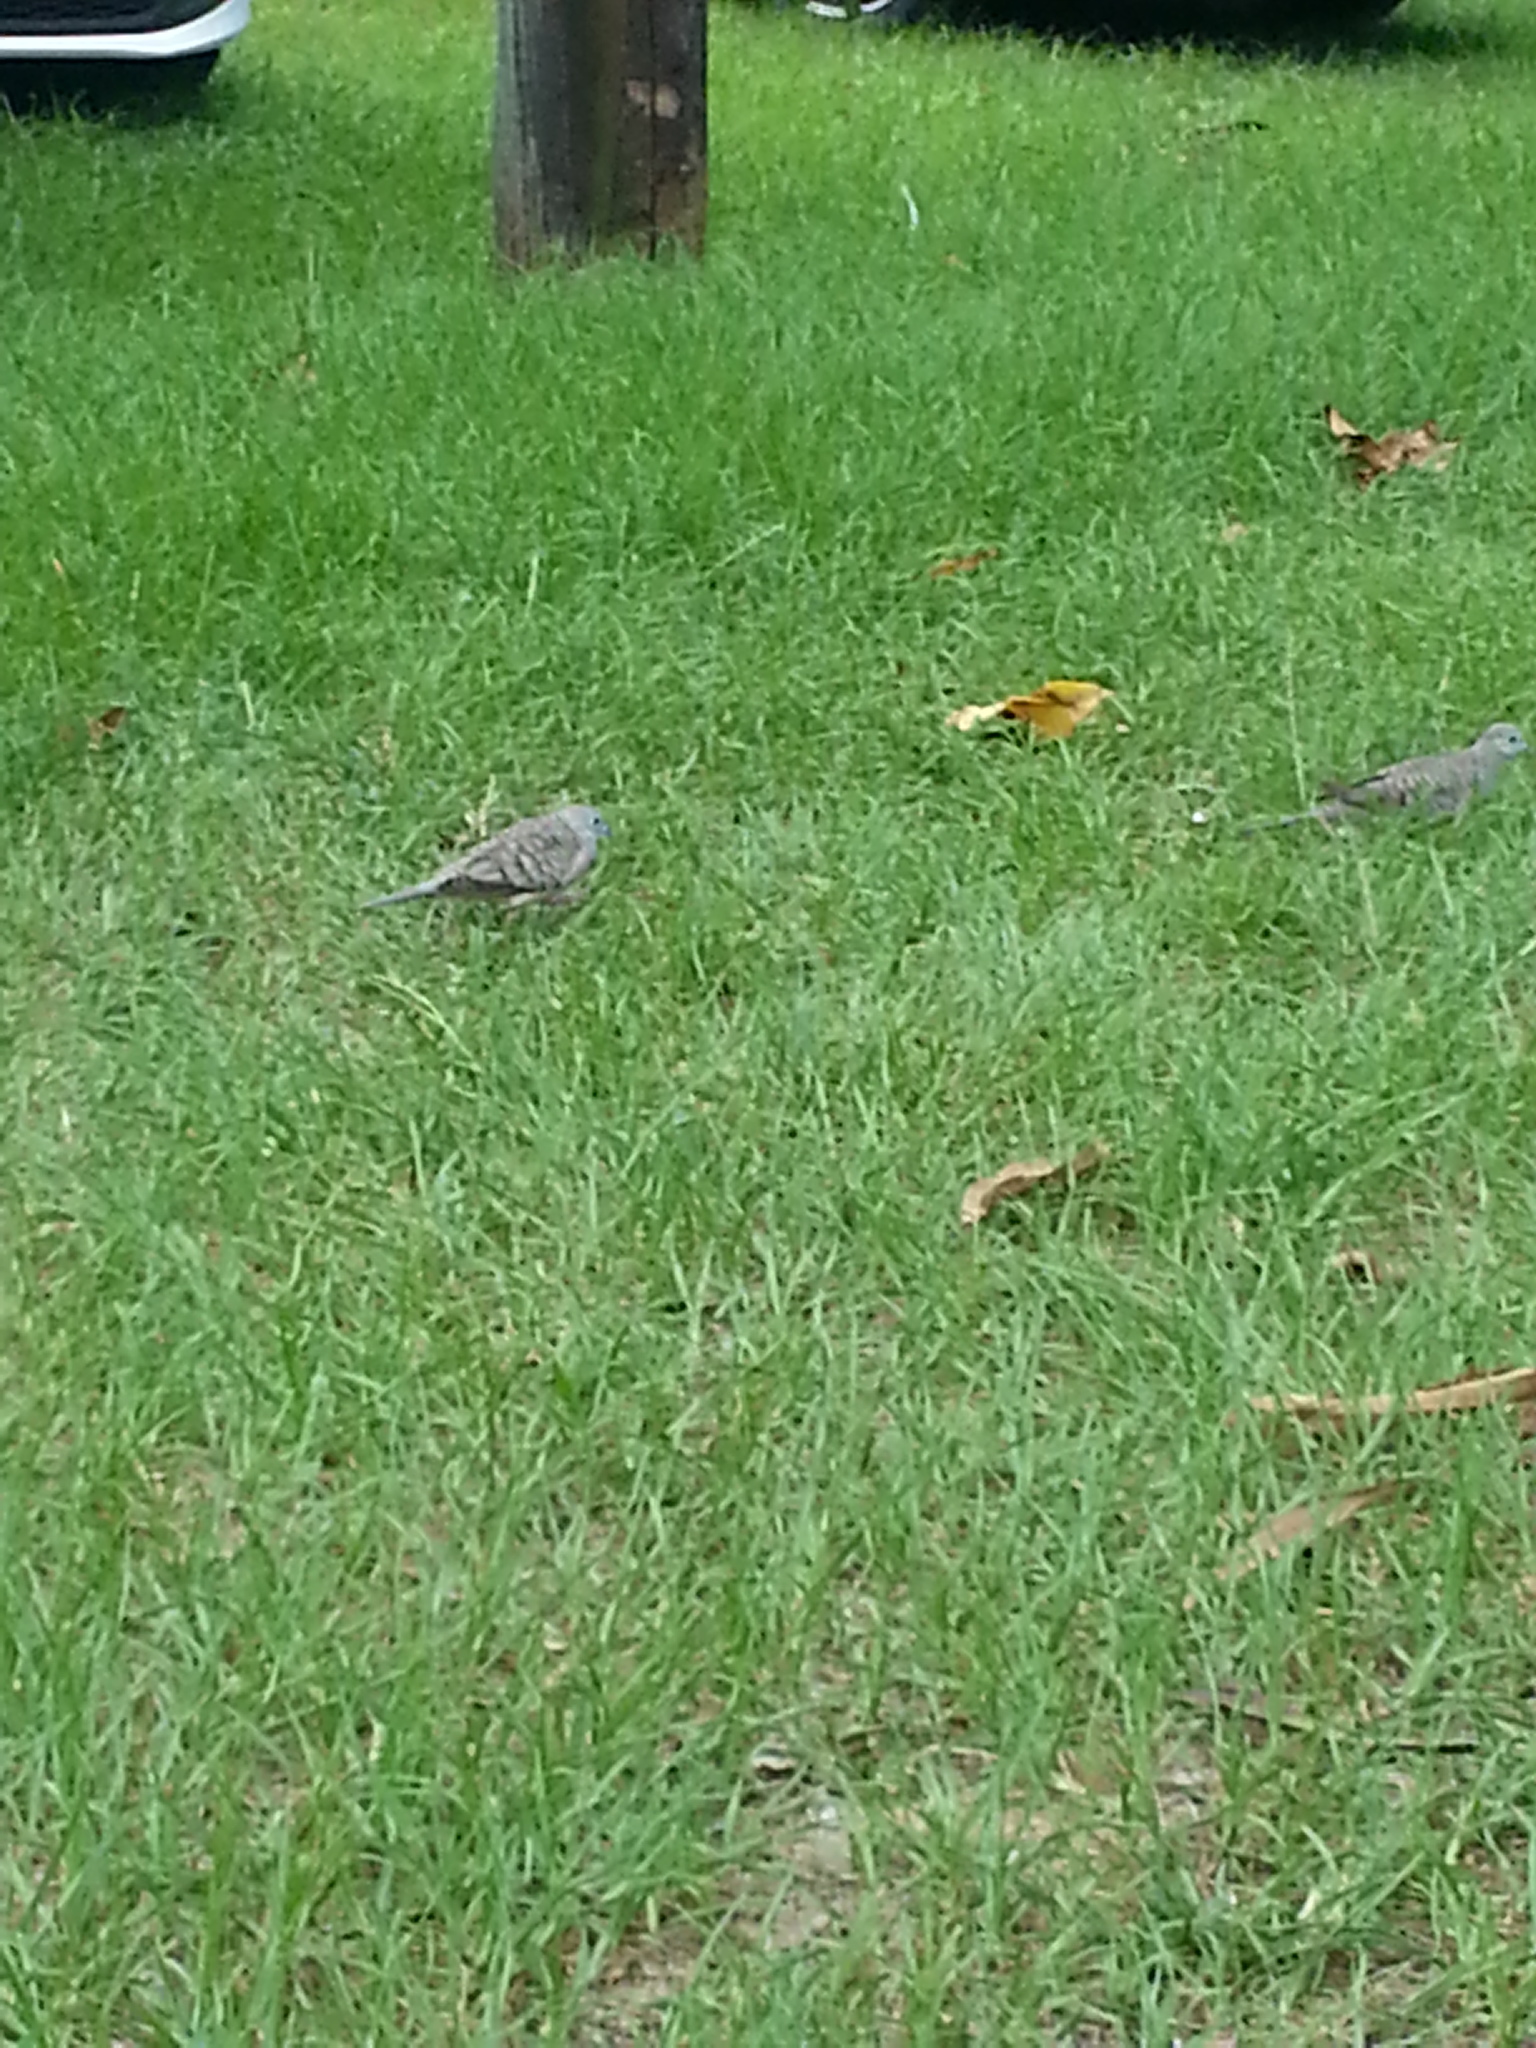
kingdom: Animalia
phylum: Chordata
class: Aves
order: Columbiformes
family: Columbidae
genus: Geopelia
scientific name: Geopelia placida
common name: Peaceful dove
